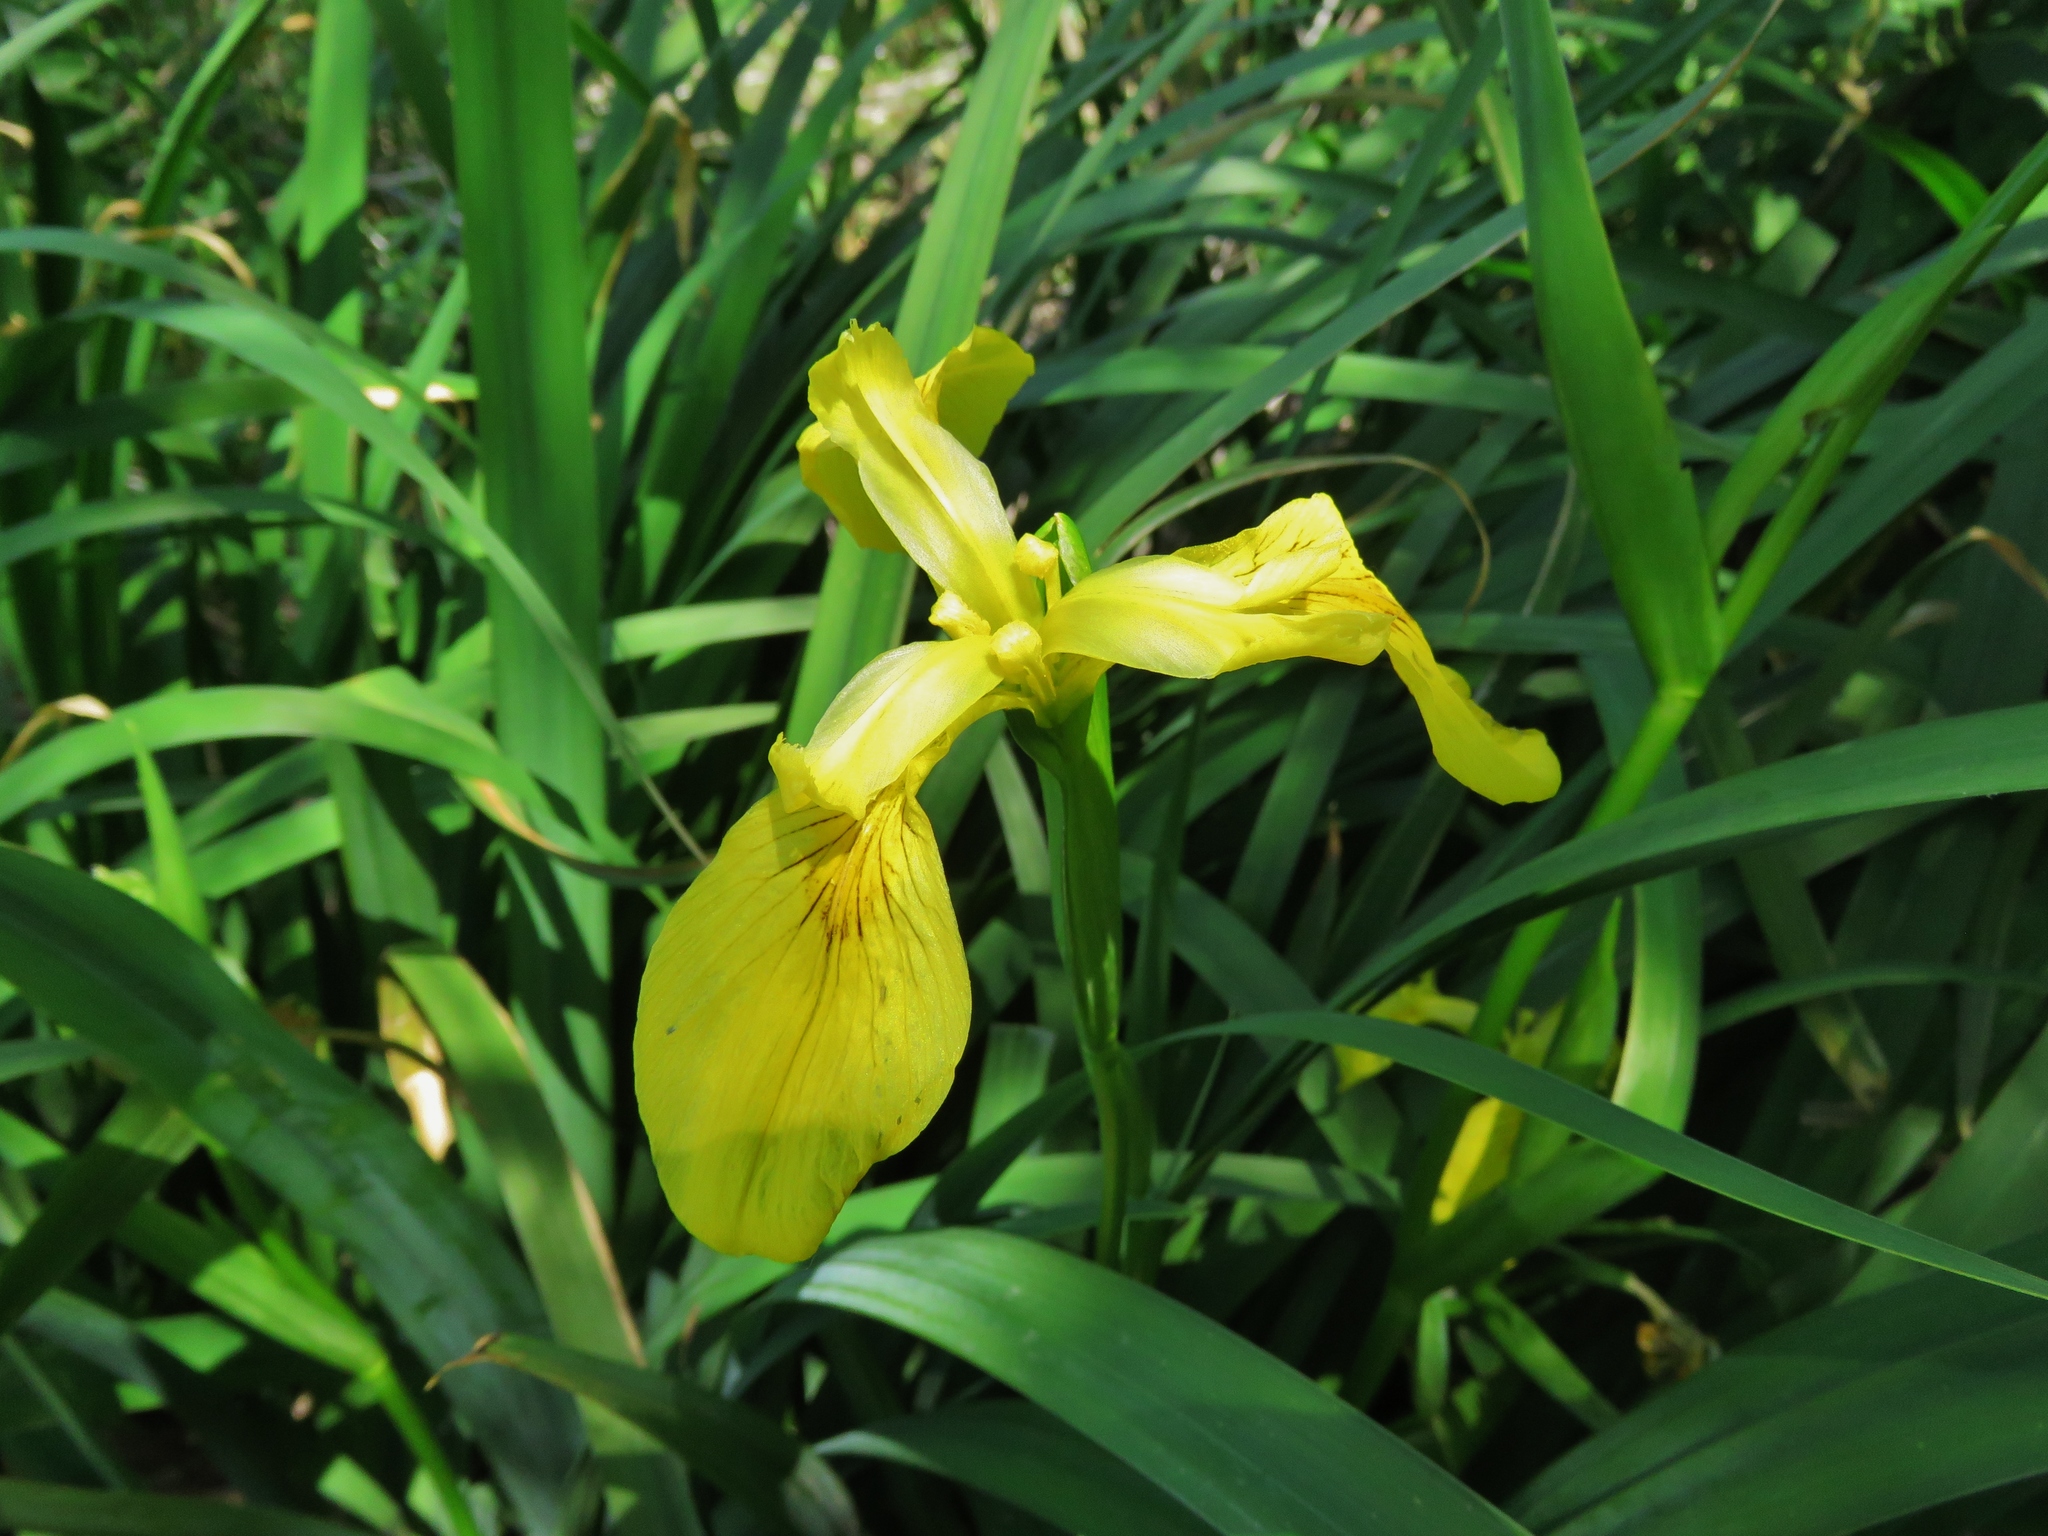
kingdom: Plantae
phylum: Tracheophyta
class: Liliopsida
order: Asparagales
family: Iridaceae
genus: Iris
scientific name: Iris pseudacorus
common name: Yellow flag
